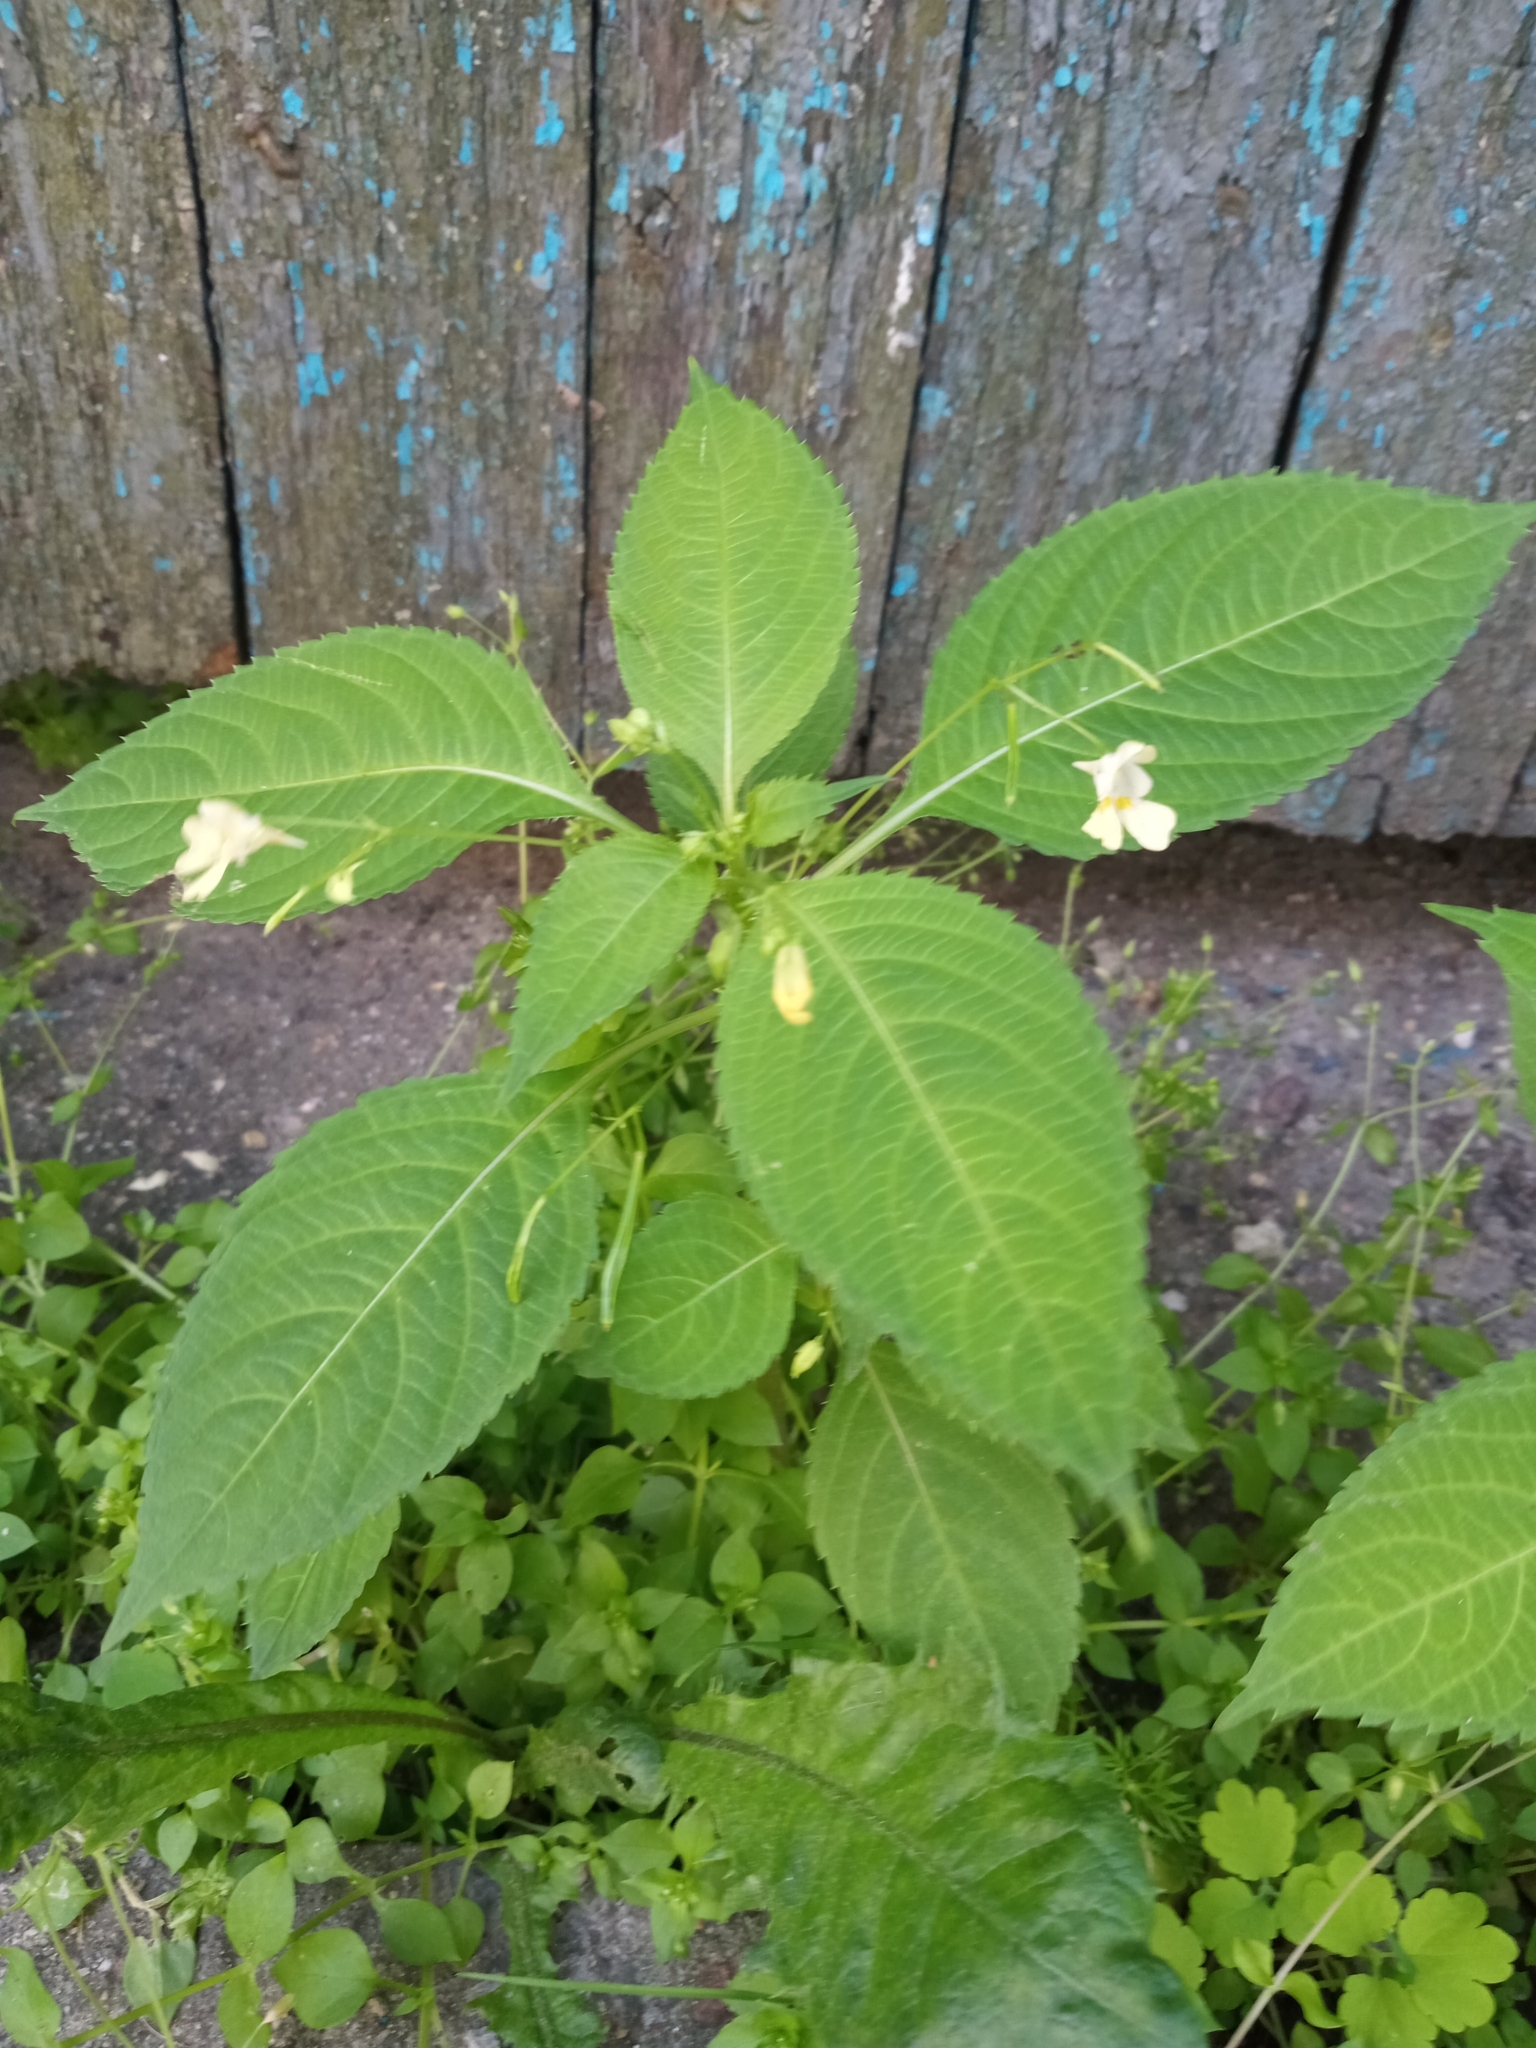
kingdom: Plantae
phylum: Tracheophyta
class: Magnoliopsida
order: Ericales
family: Balsaminaceae
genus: Impatiens
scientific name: Impatiens parviflora
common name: Small balsam
